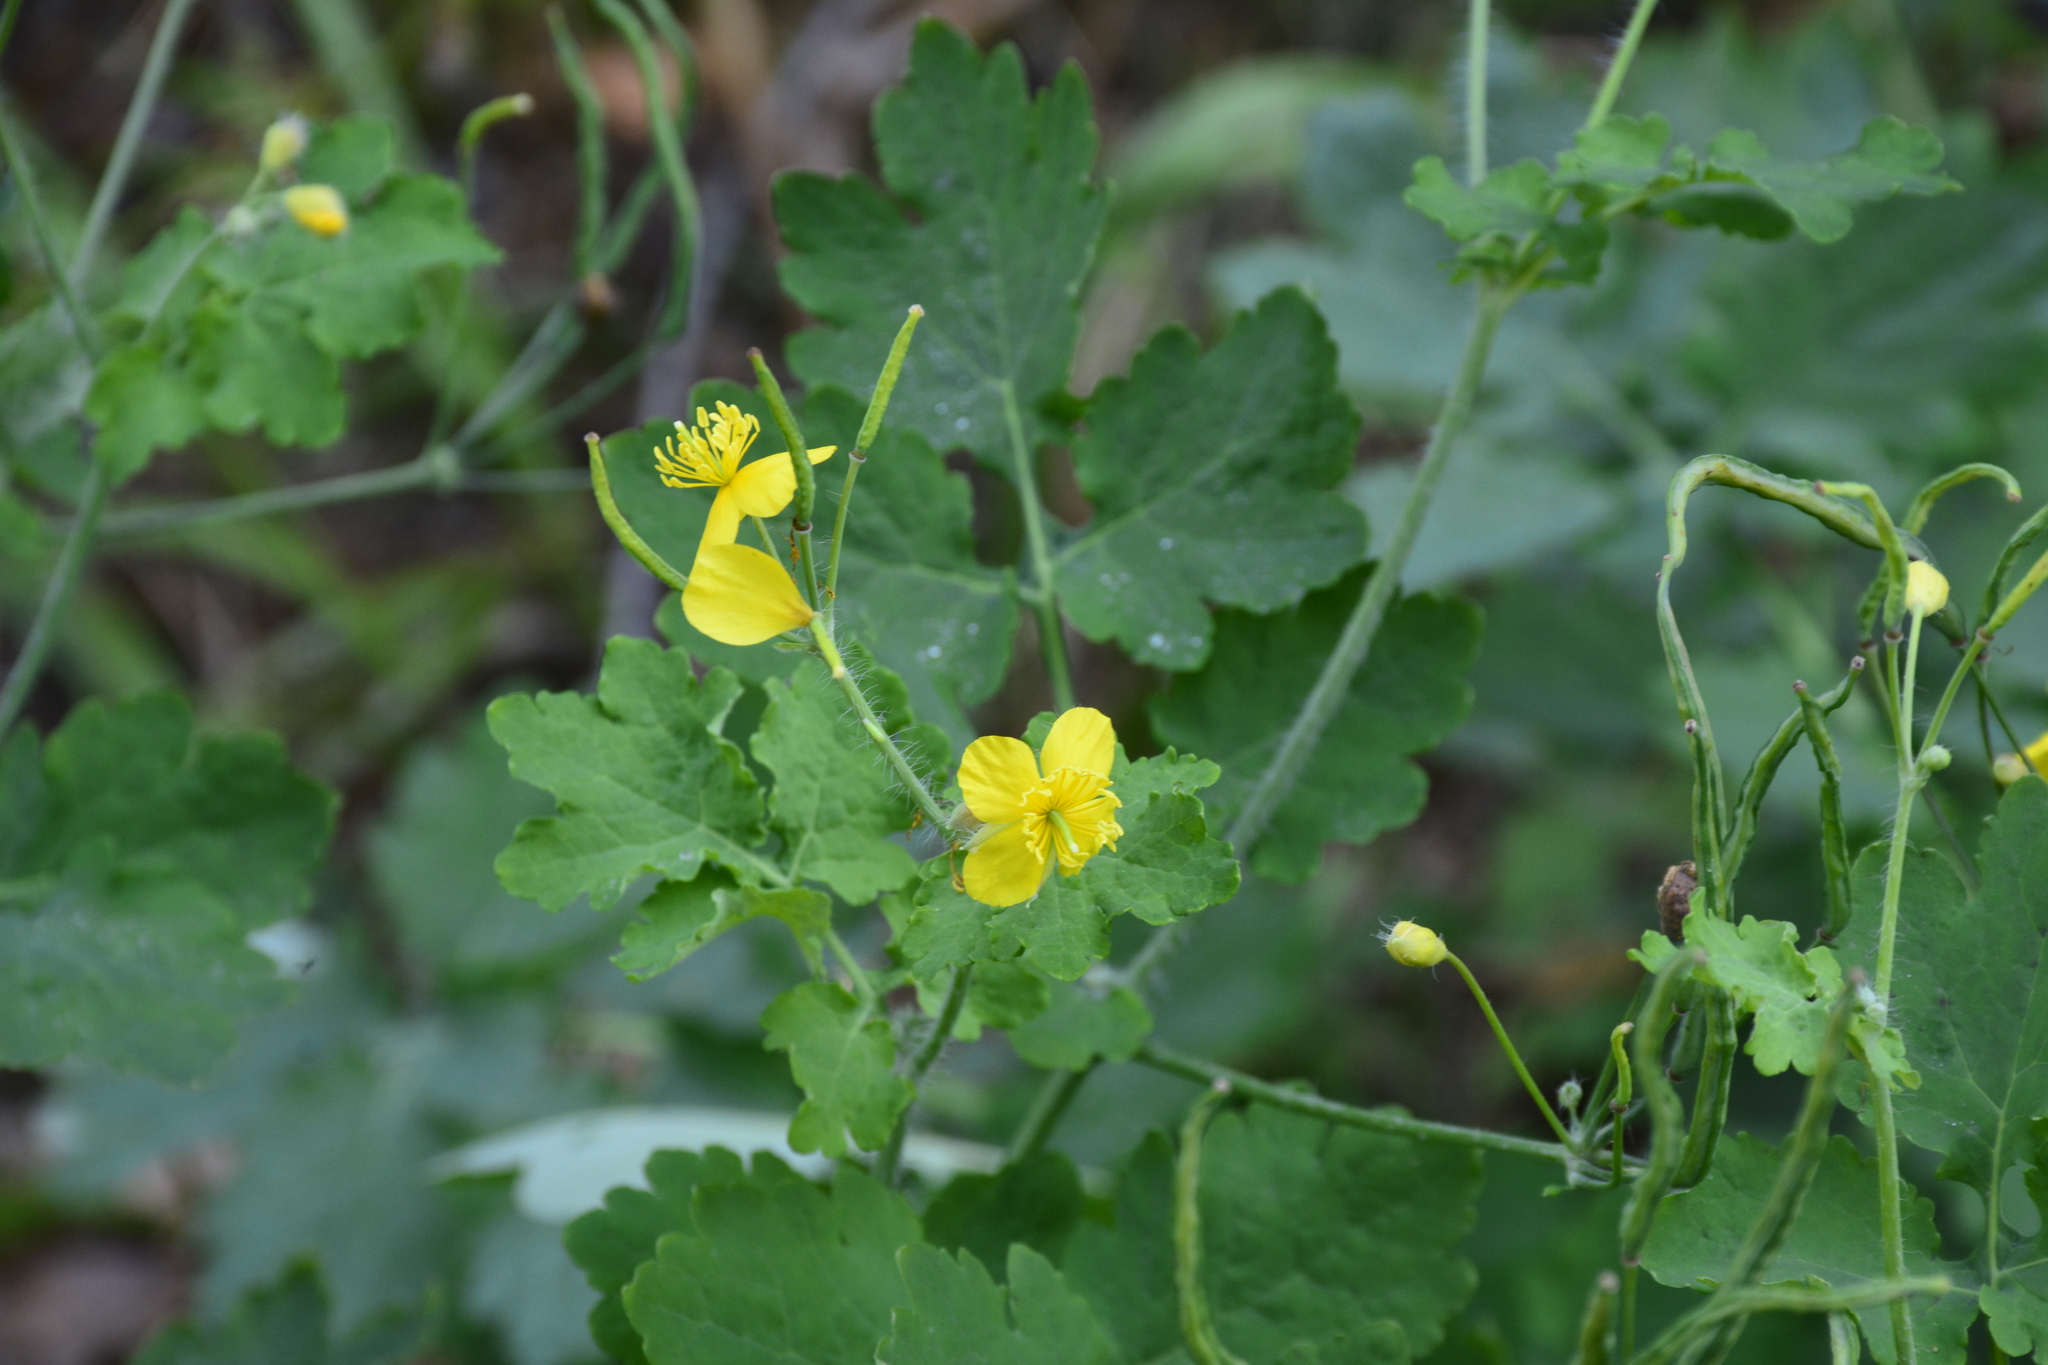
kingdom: Plantae
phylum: Tracheophyta
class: Magnoliopsida
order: Ranunculales
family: Papaveraceae
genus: Chelidonium
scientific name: Chelidonium majus
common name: Greater celandine
